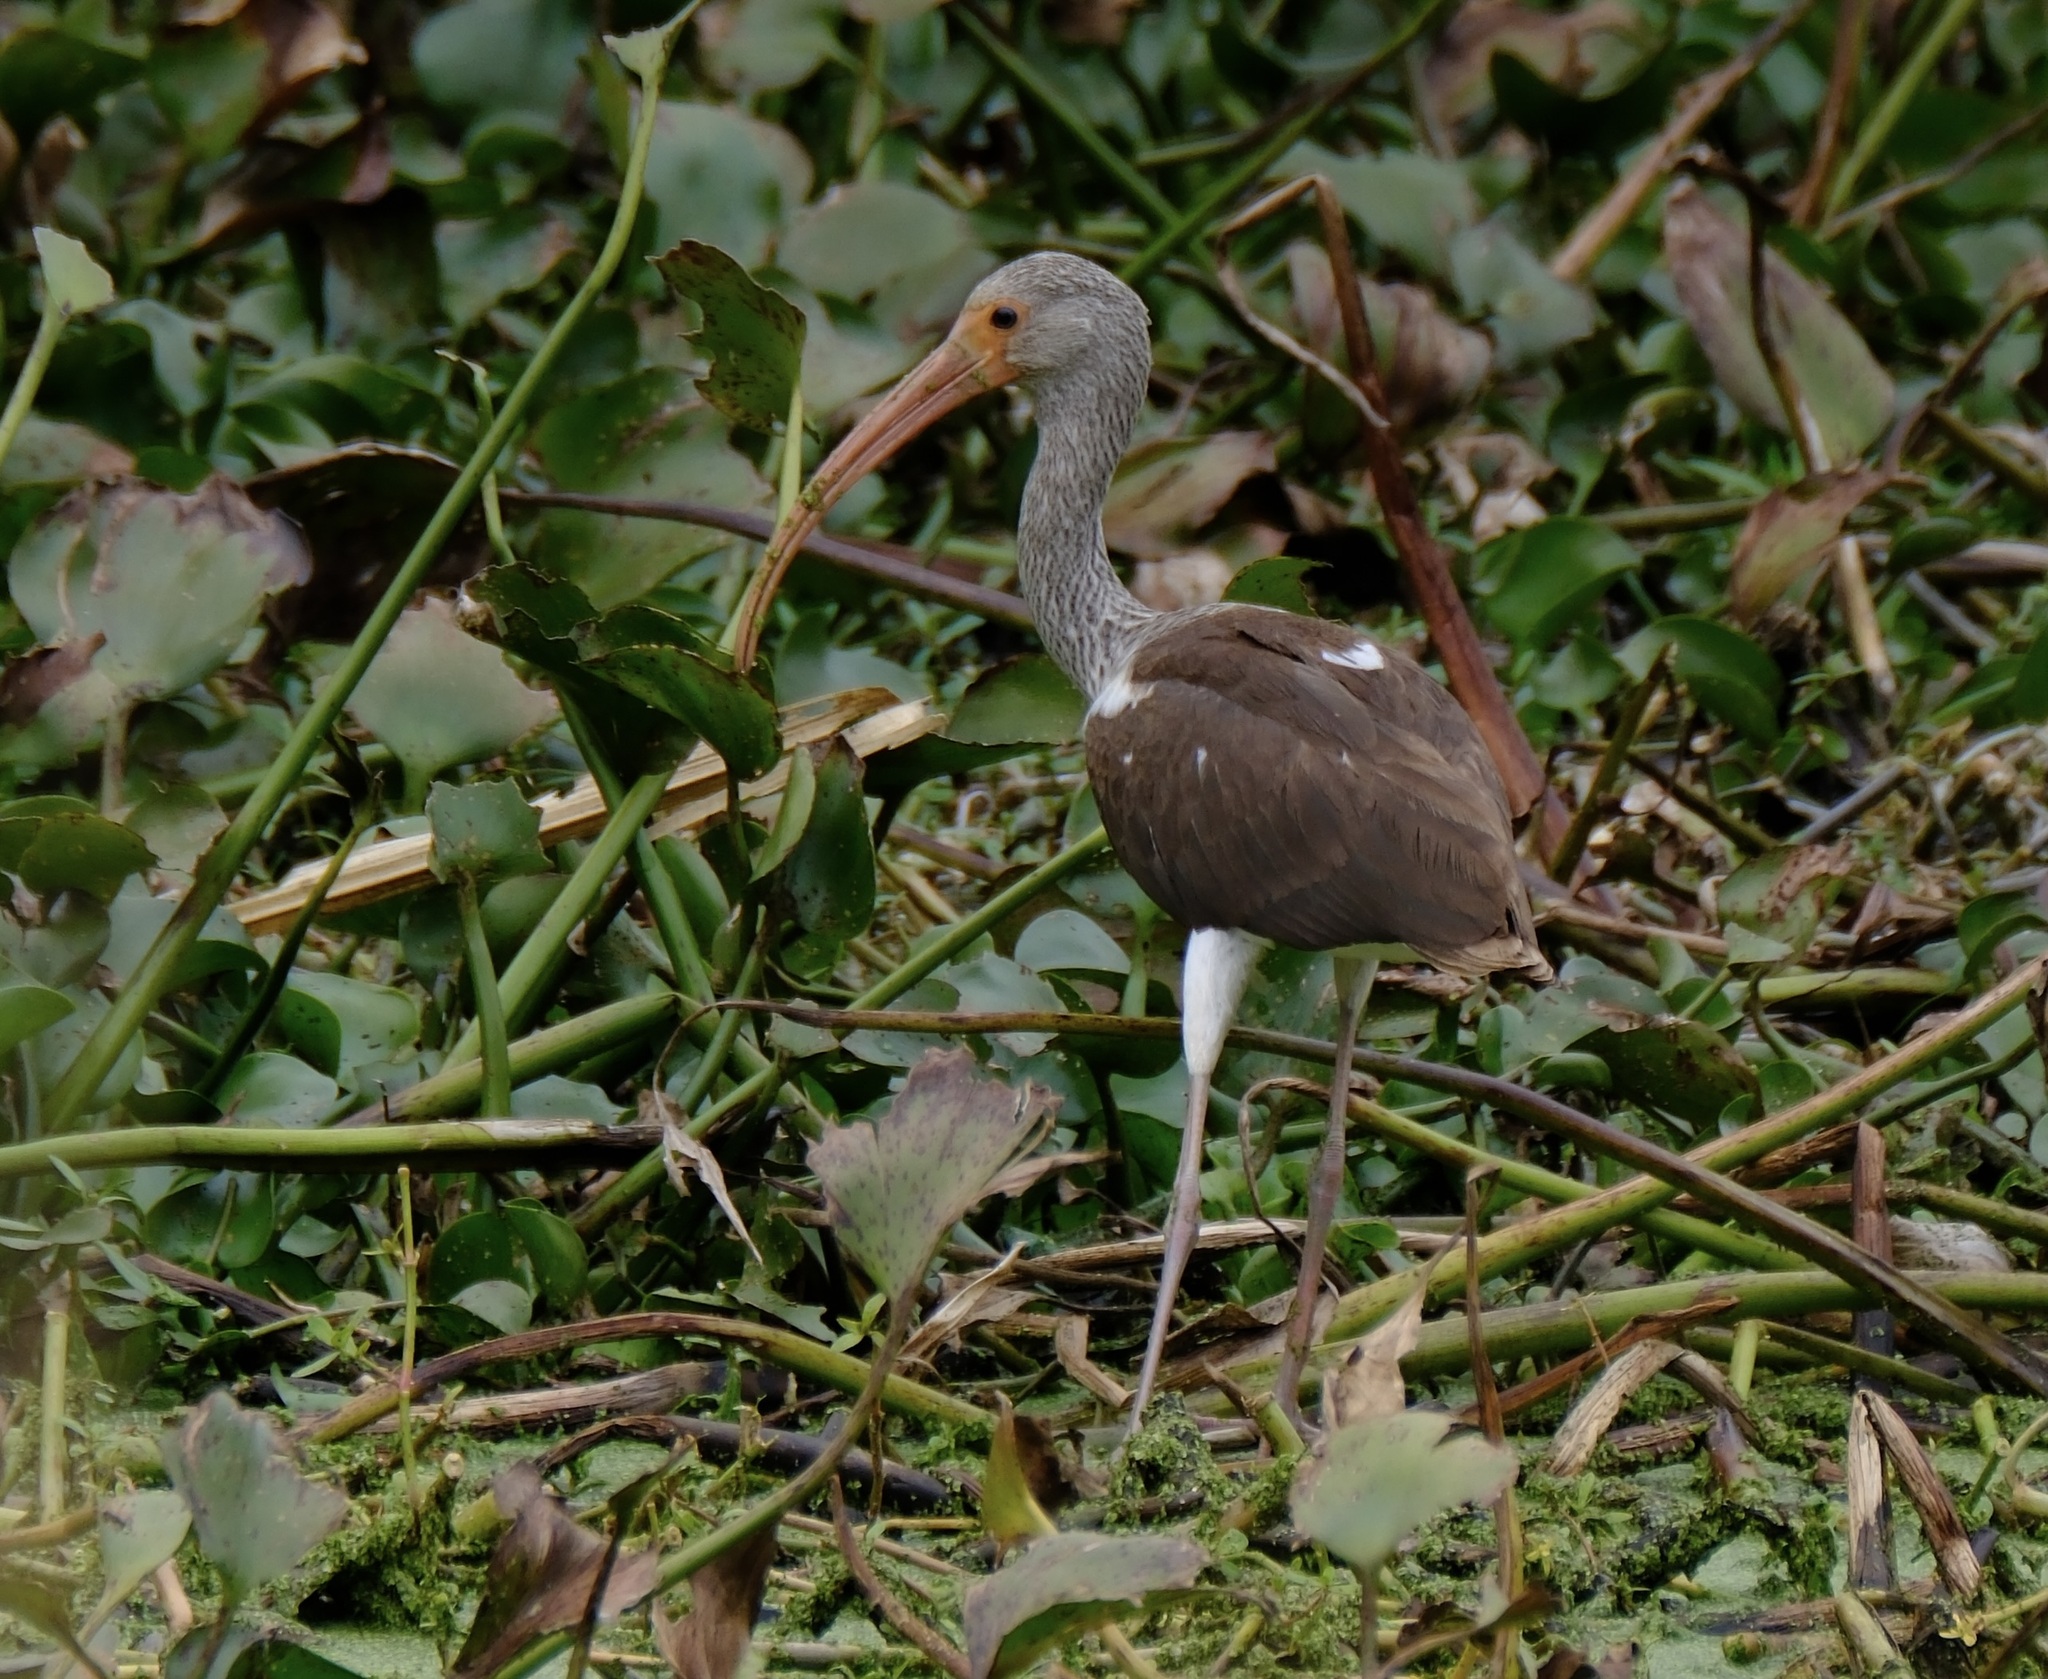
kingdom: Animalia
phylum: Chordata
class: Aves
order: Pelecaniformes
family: Threskiornithidae
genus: Eudocimus
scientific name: Eudocimus albus
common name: White ibis
